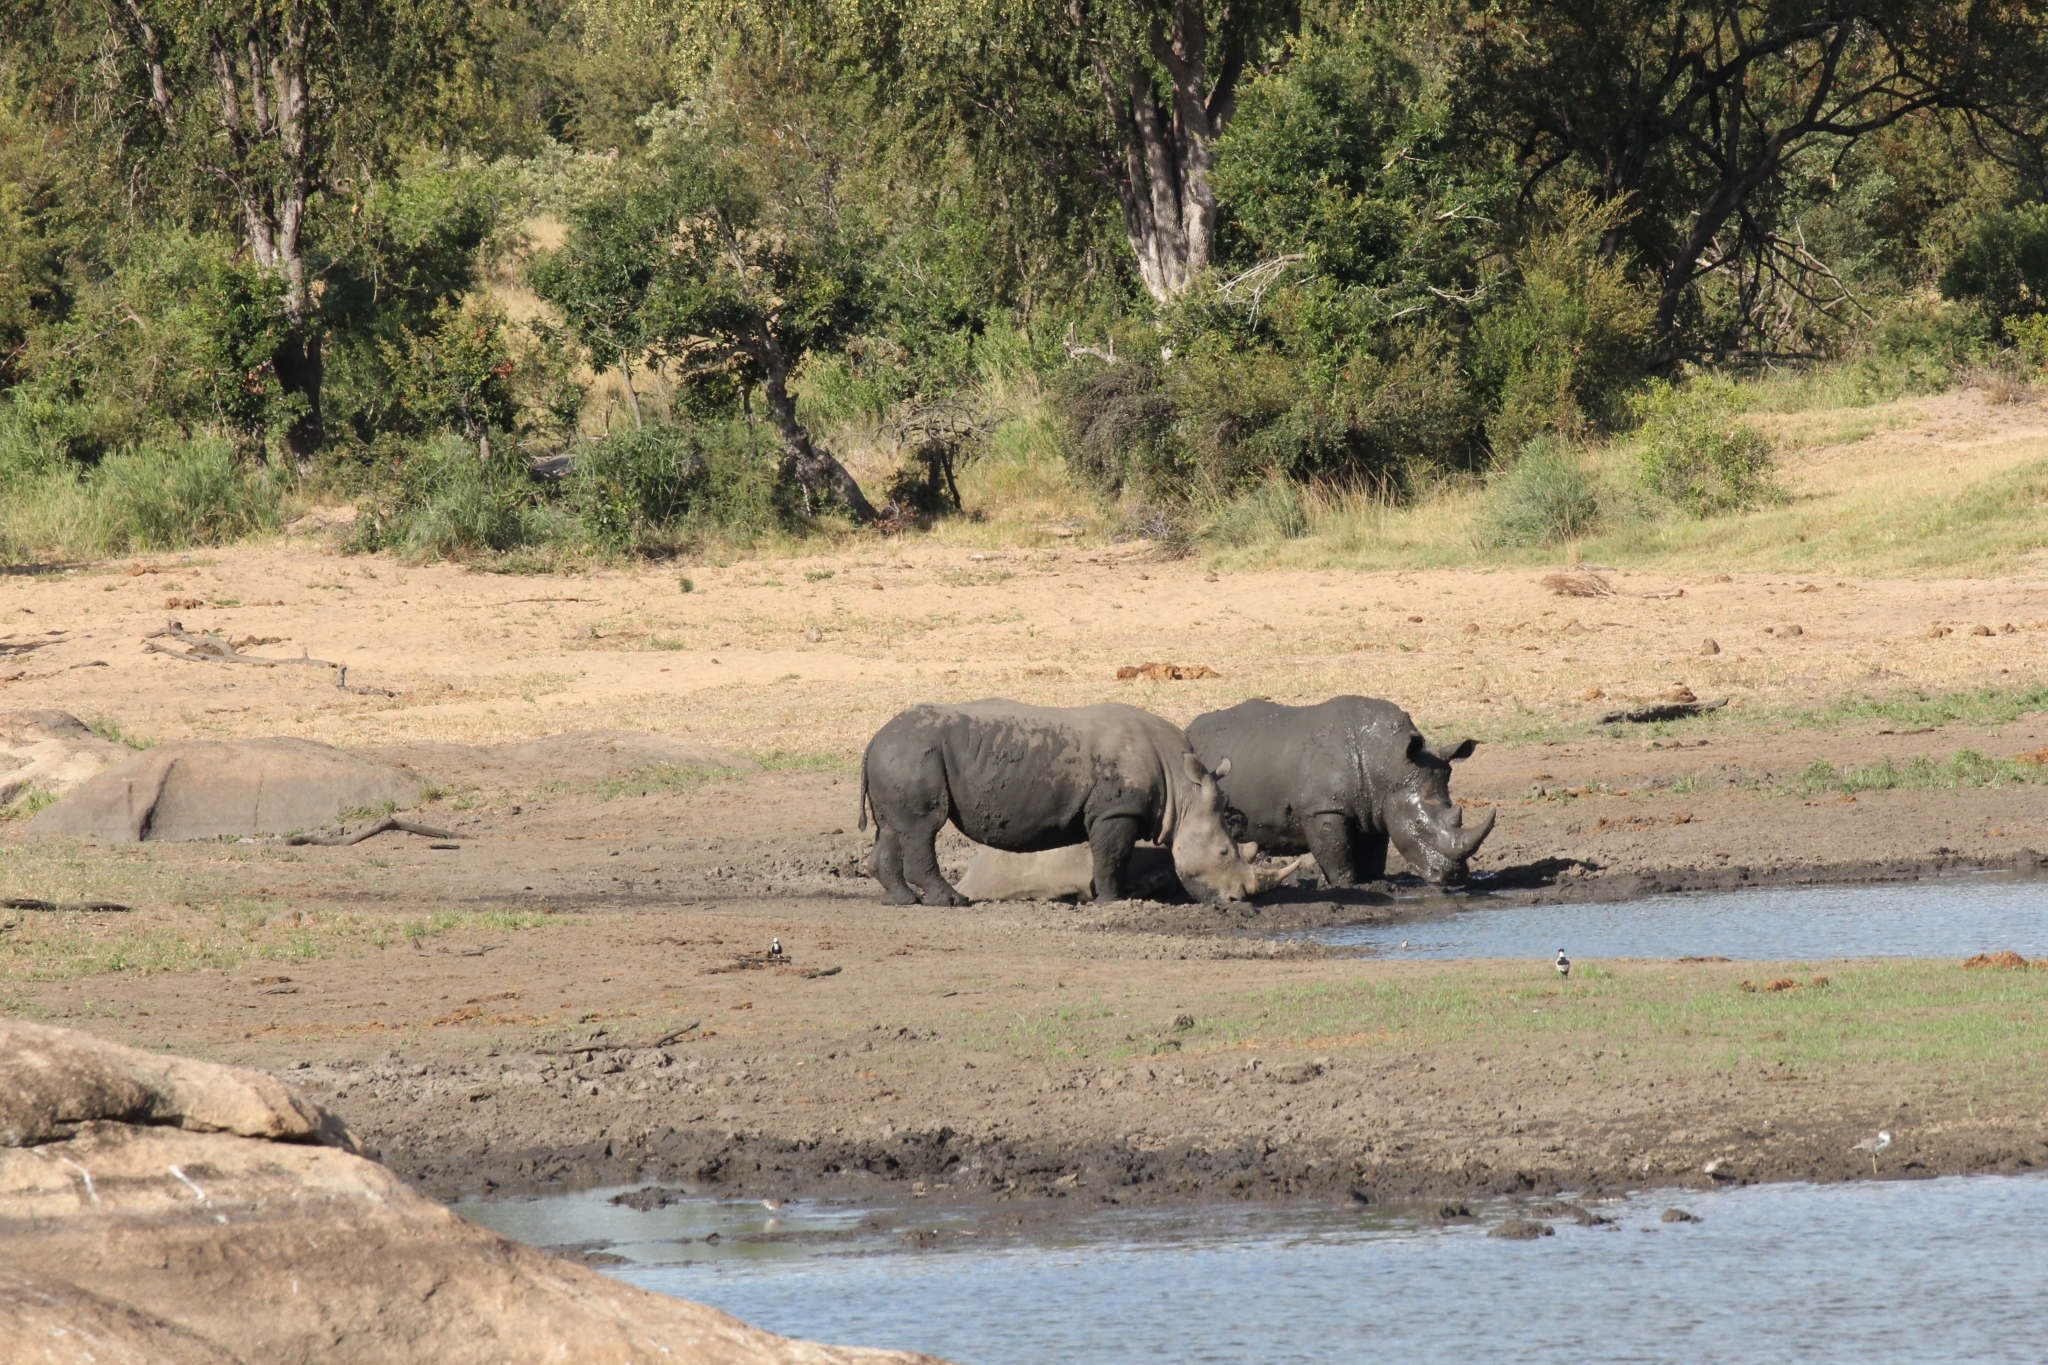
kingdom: Animalia
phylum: Chordata
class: Mammalia
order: Perissodactyla
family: Rhinocerotidae
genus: Ceratotherium
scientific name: Ceratotherium simum
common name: White rhinoceros
